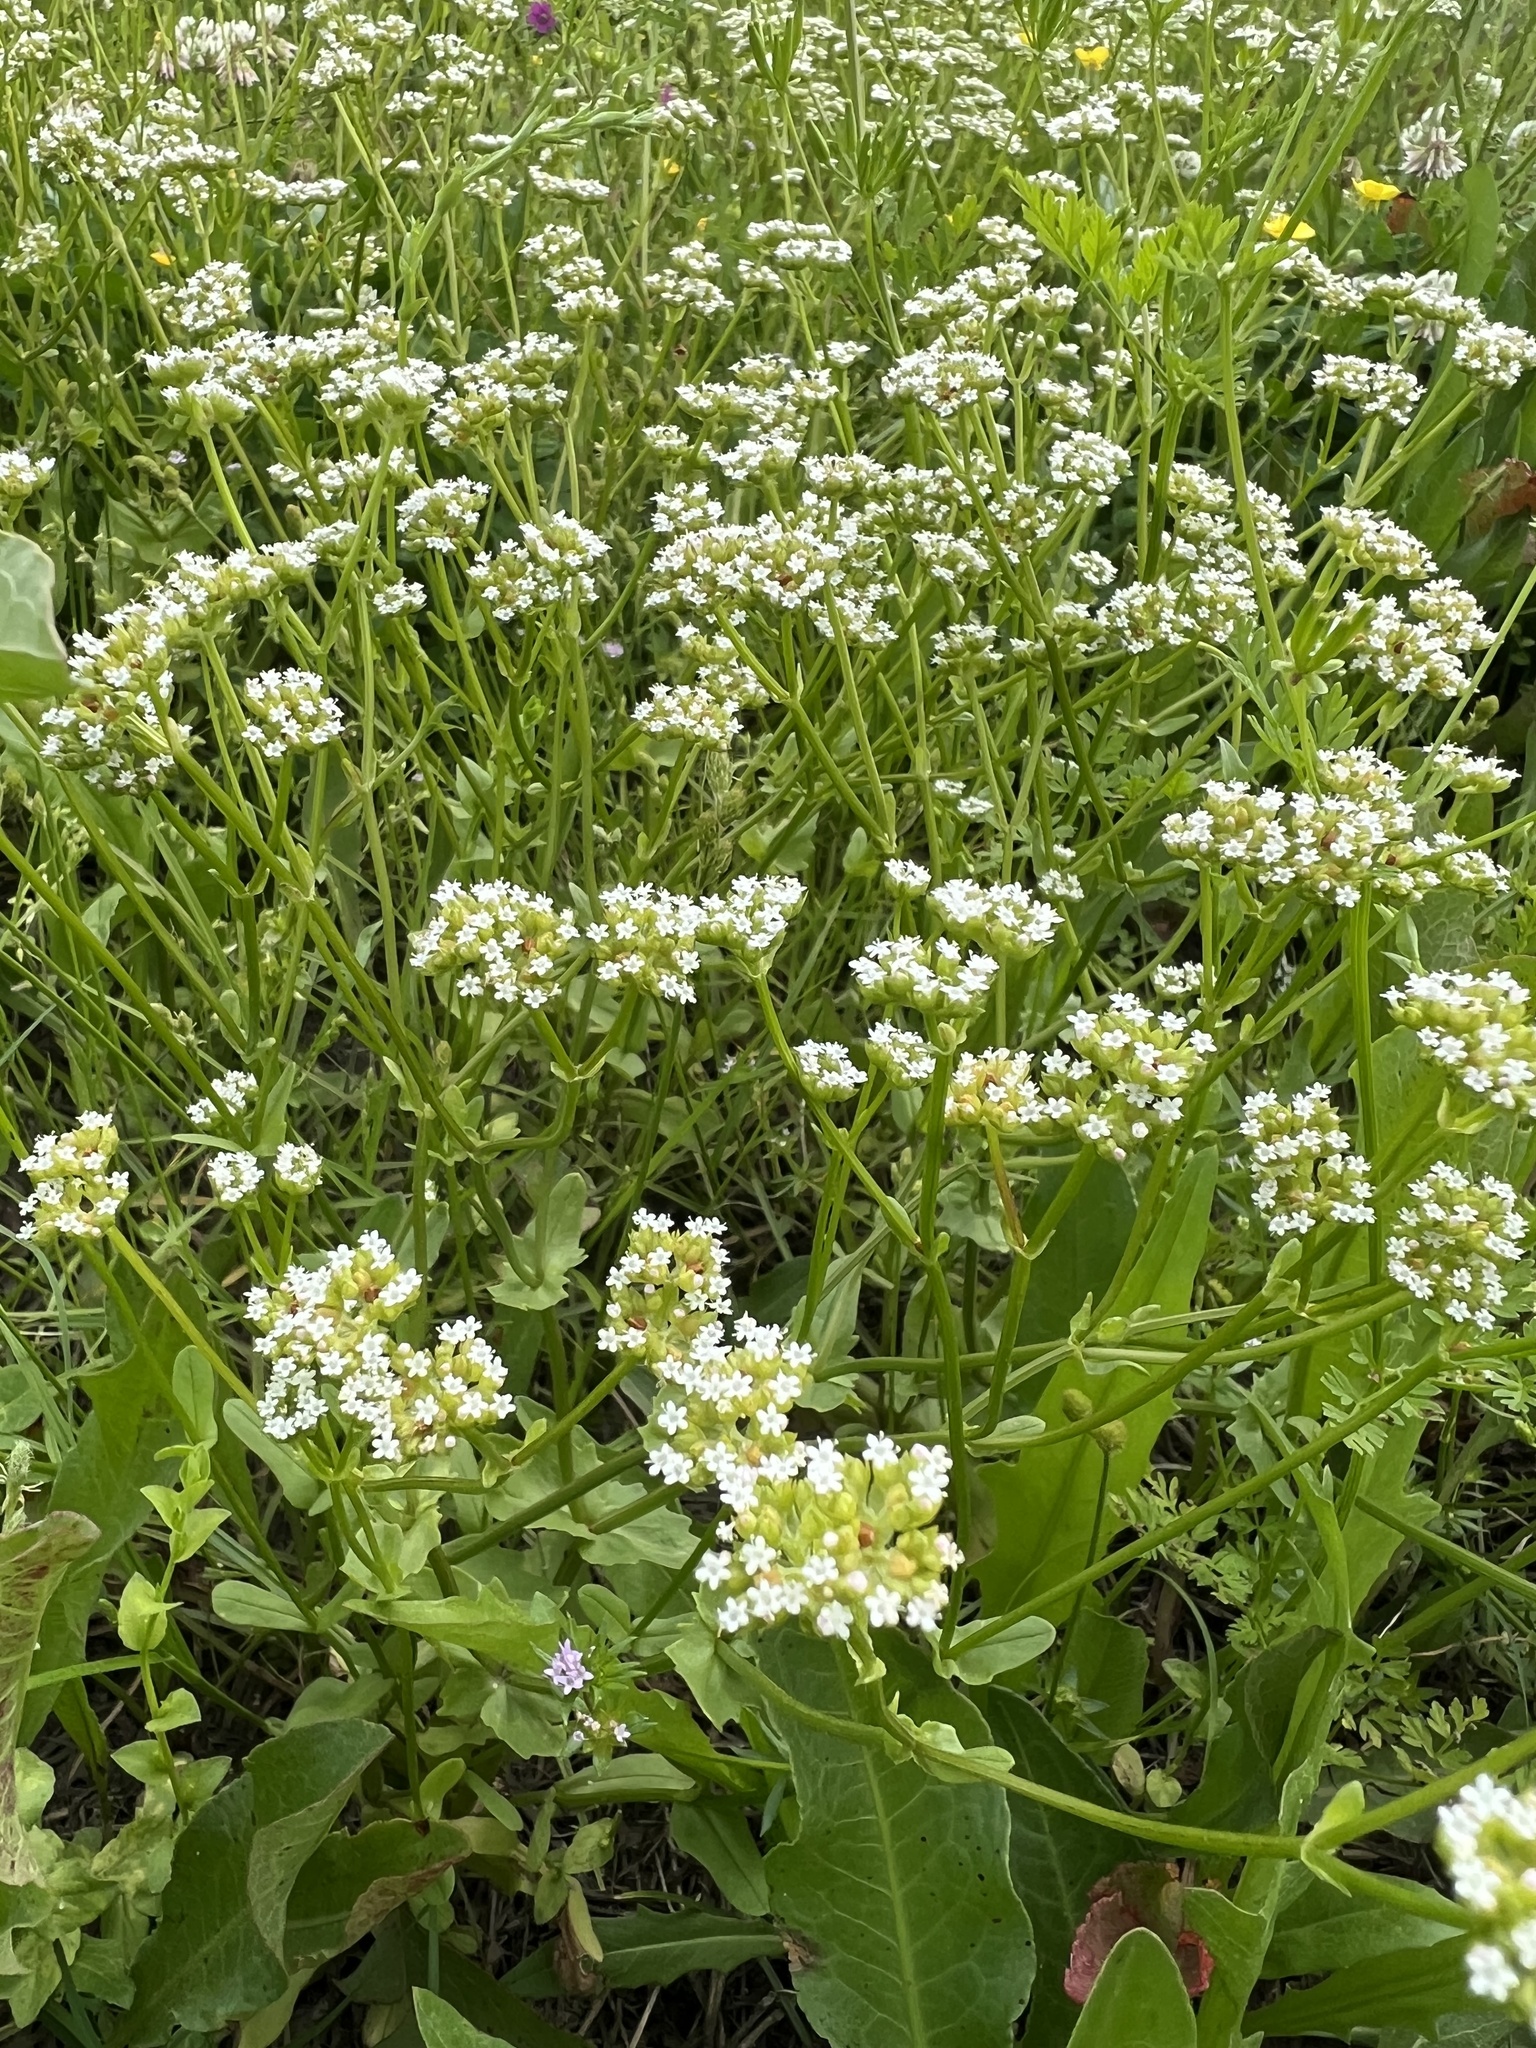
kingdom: Plantae
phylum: Tracheophyta
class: Magnoliopsida
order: Dipsacales
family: Caprifoliaceae
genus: Valerianella
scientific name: Valerianella radiata
